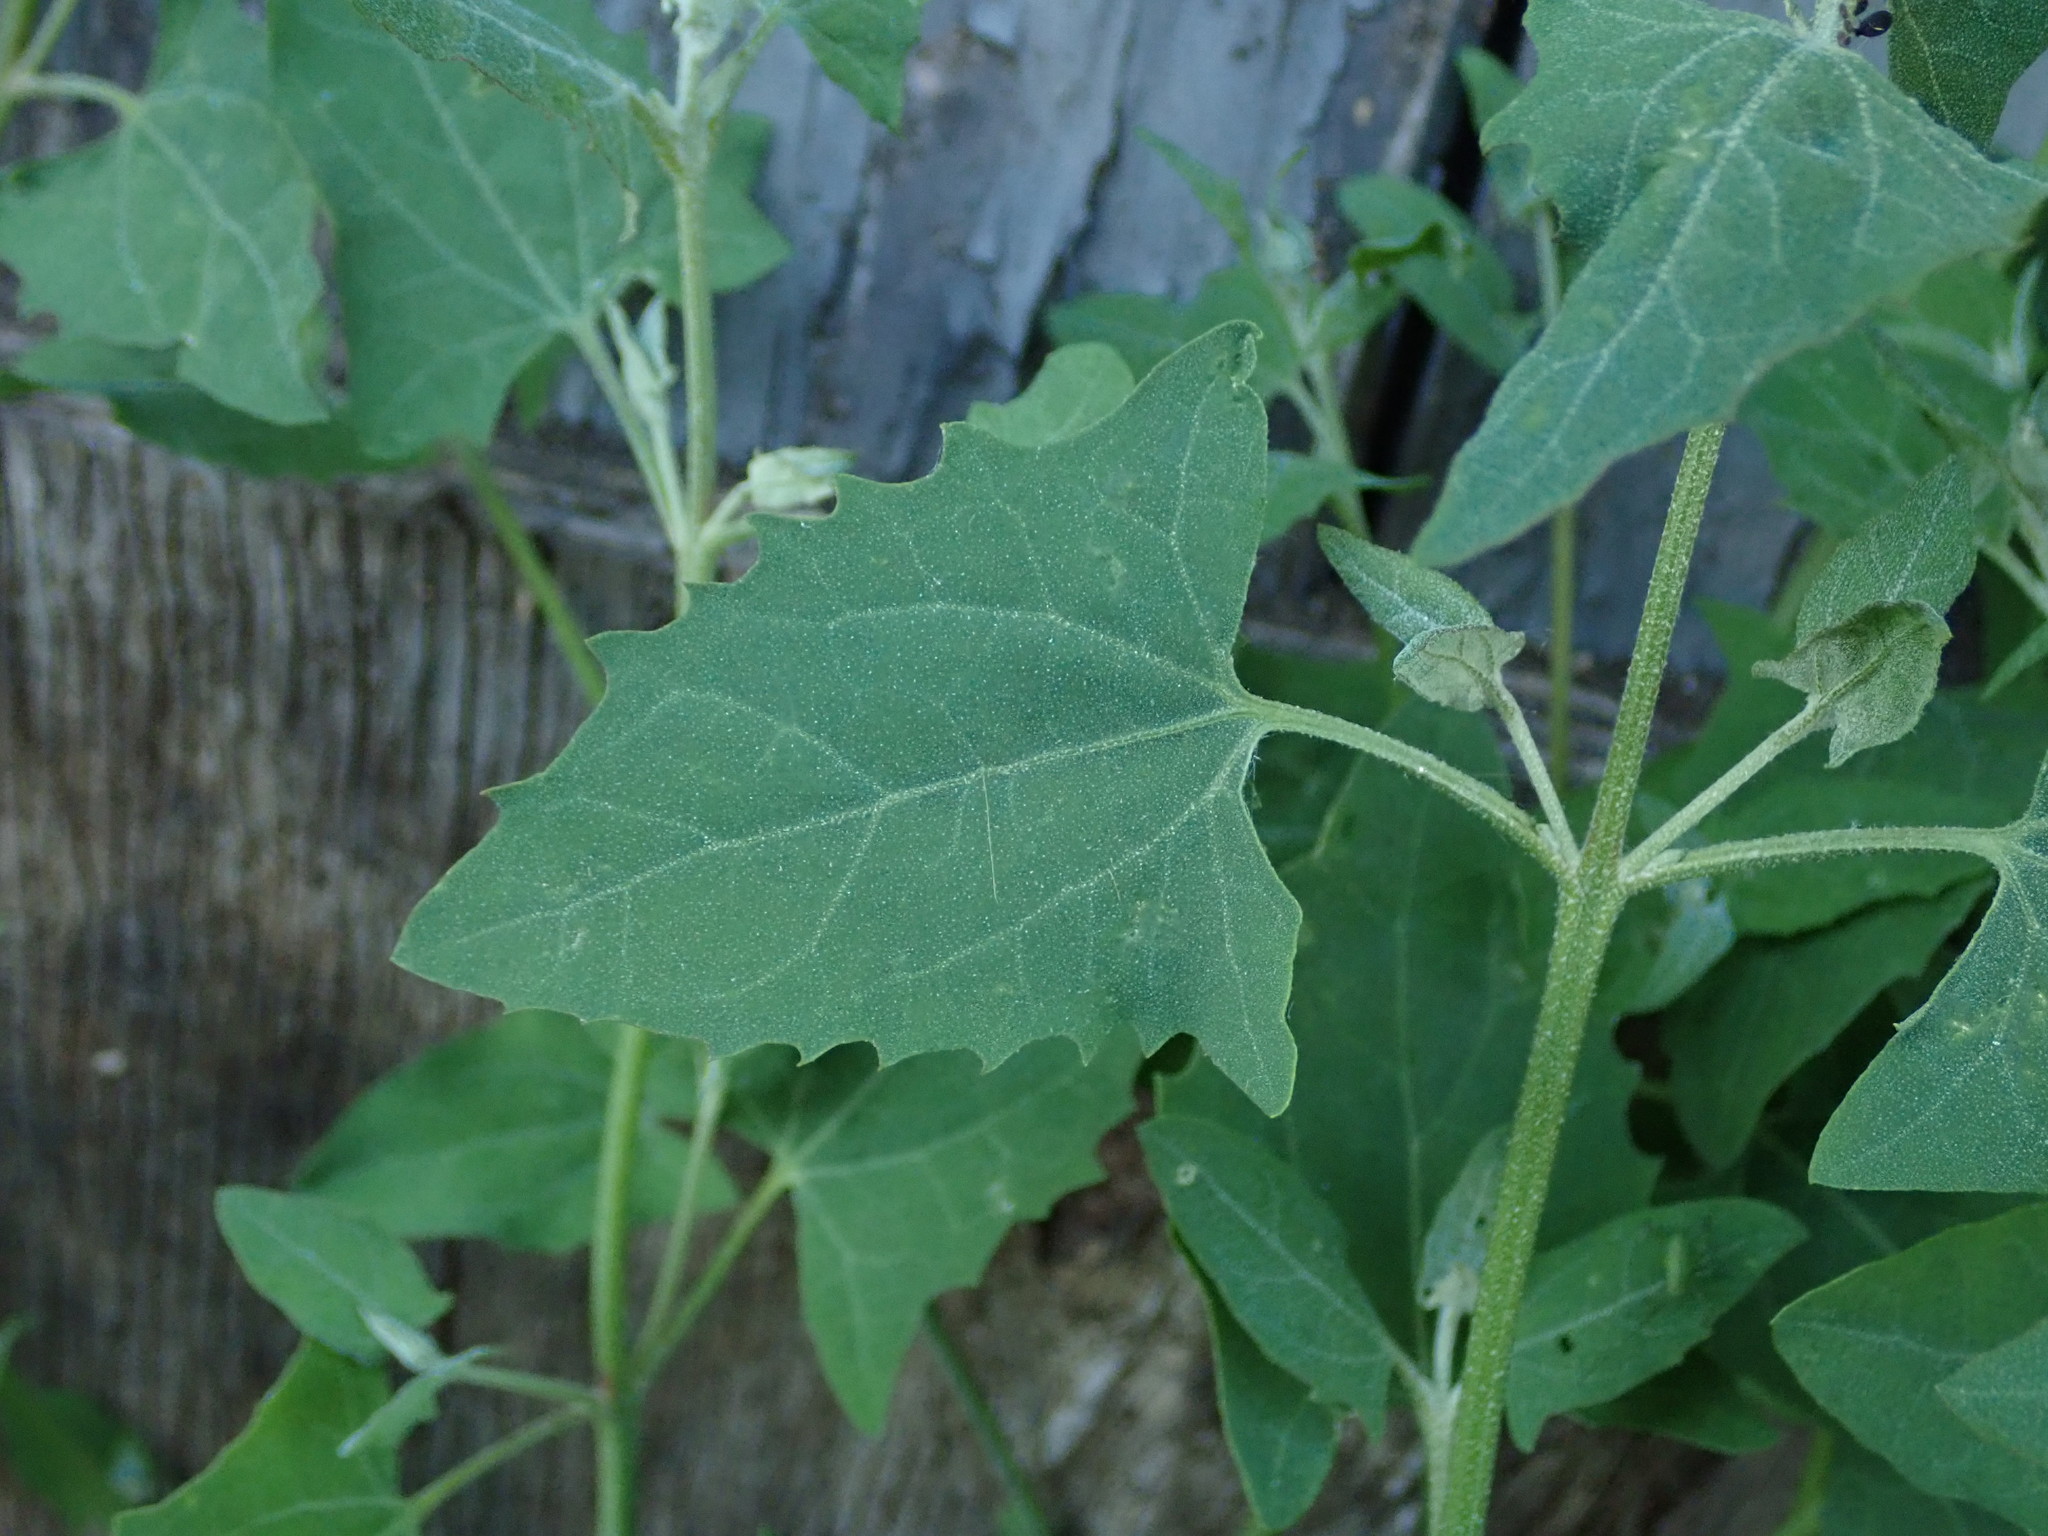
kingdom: Plantae
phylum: Tracheophyta
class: Magnoliopsida
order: Caryophyllales
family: Amaranthaceae
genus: Atriplex
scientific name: Atriplex prostrata
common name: Spear-leaved orache
